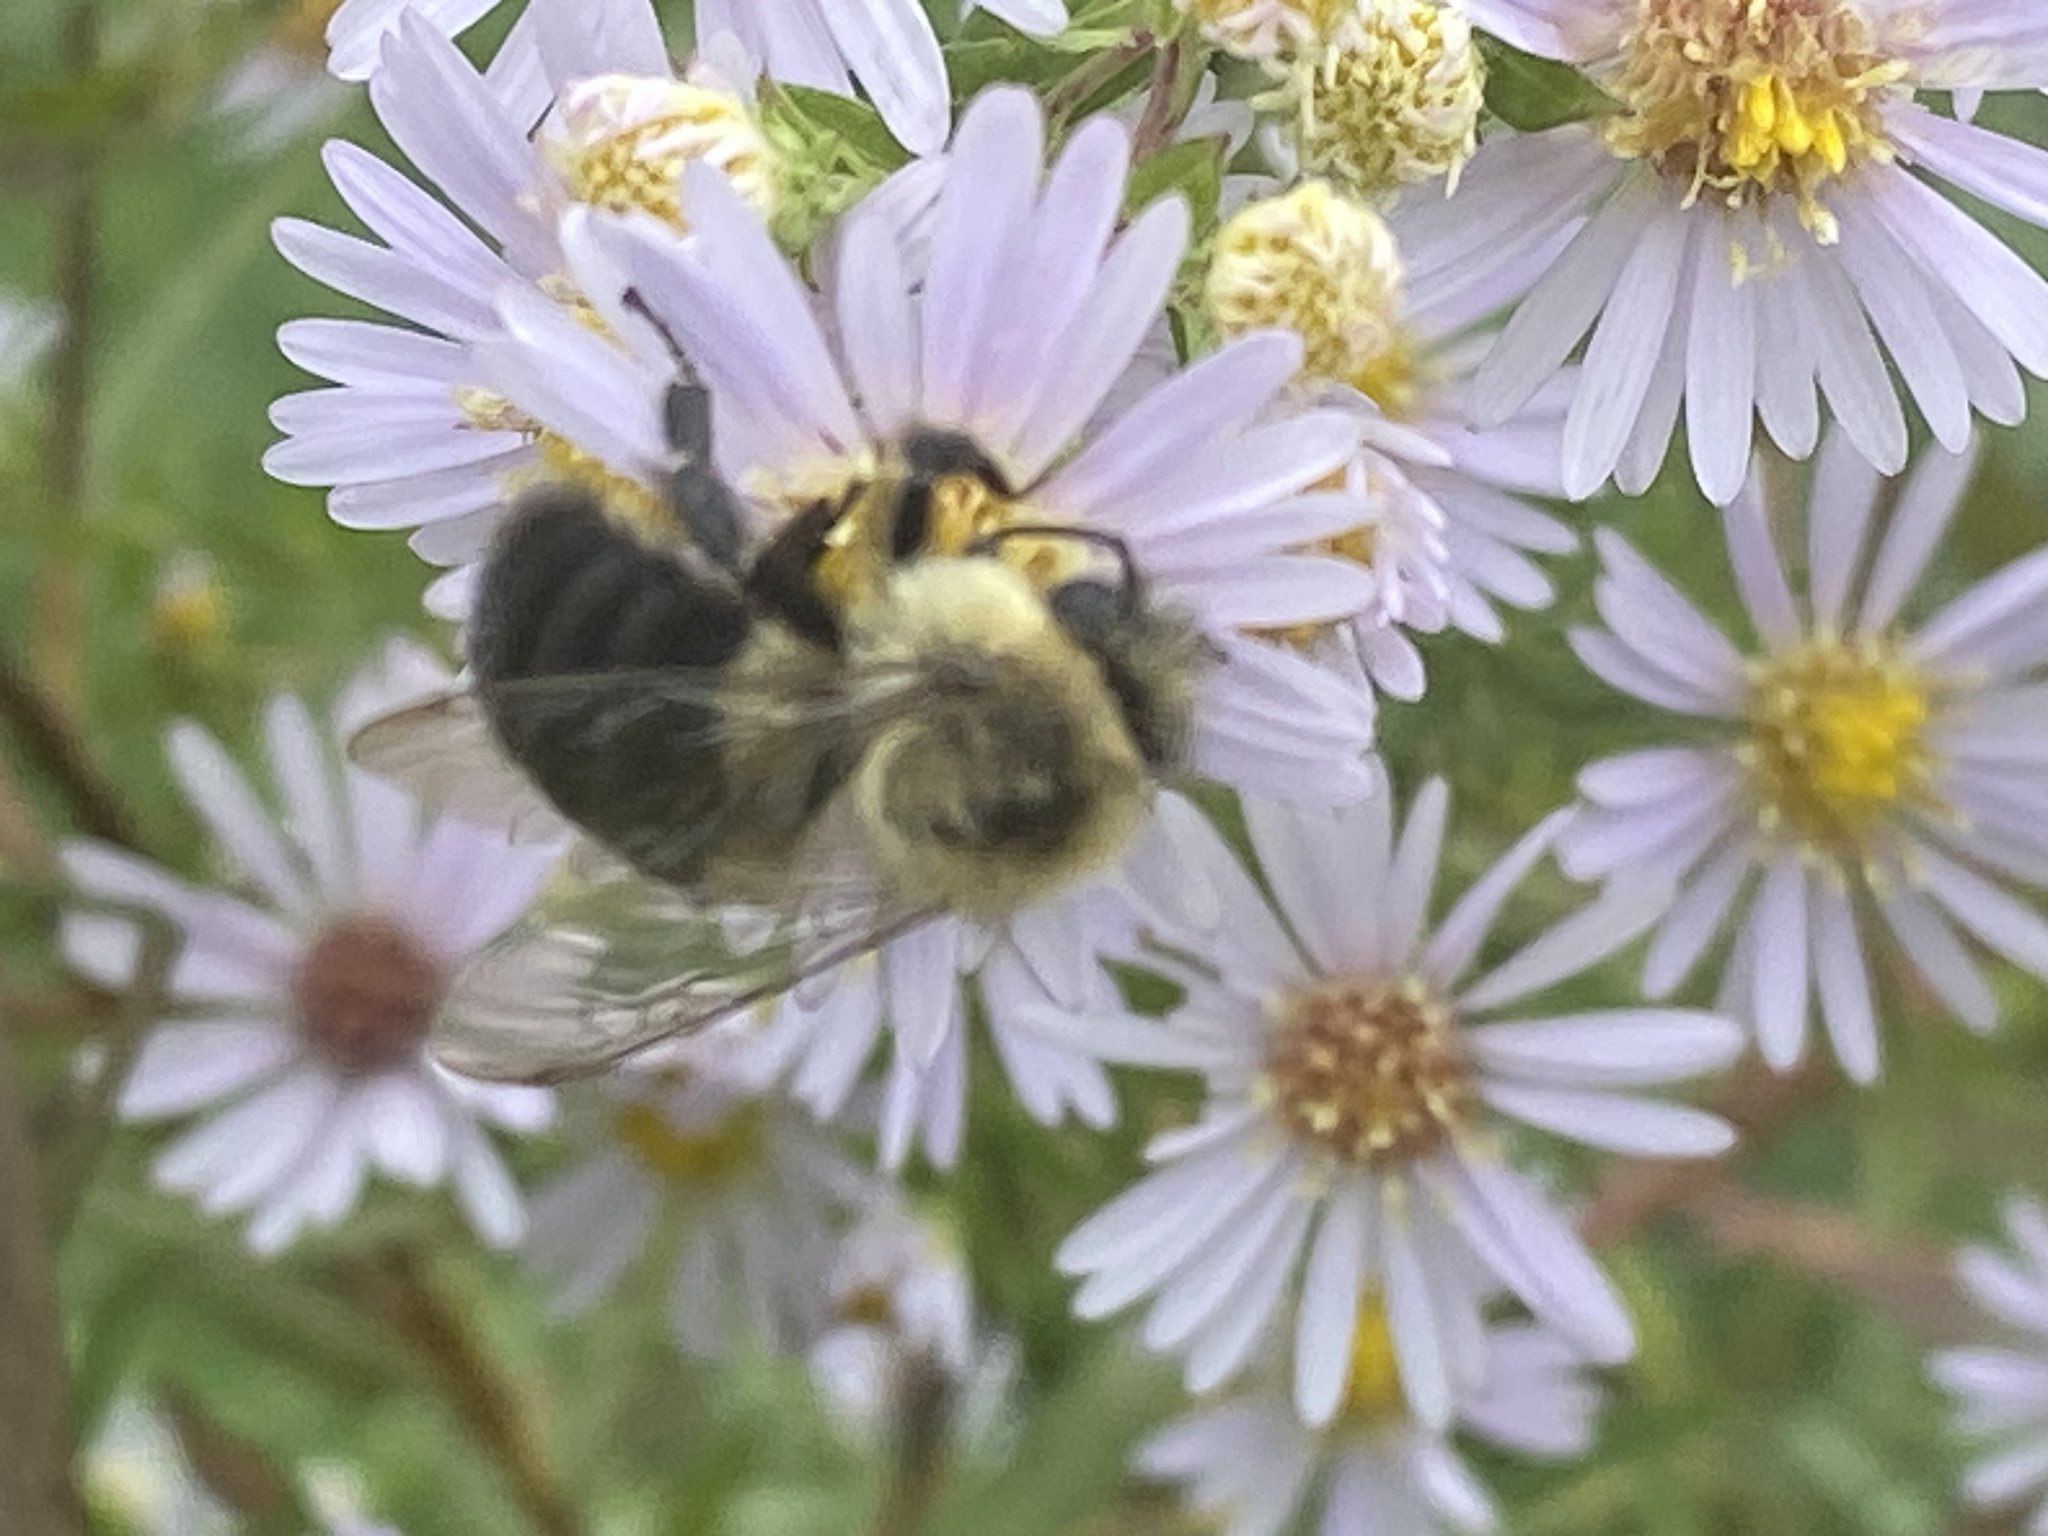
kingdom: Animalia
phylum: Arthropoda
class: Insecta
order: Hymenoptera
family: Apidae
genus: Bombus
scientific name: Bombus impatiens
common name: Common eastern bumble bee
